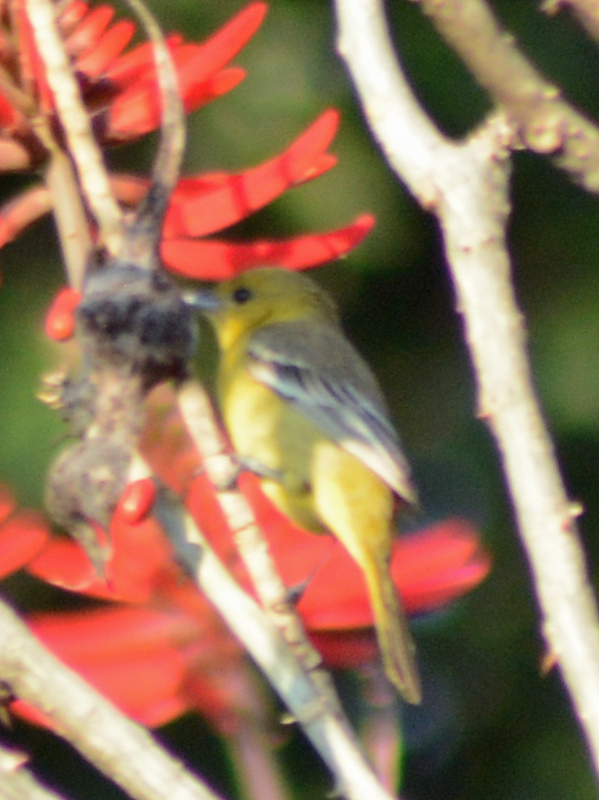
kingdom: Animalia
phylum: Chordata
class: Aves
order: Passeriformes
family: Icteridae
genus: Icterus
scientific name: Icterus spurius
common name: Orchard oriole
